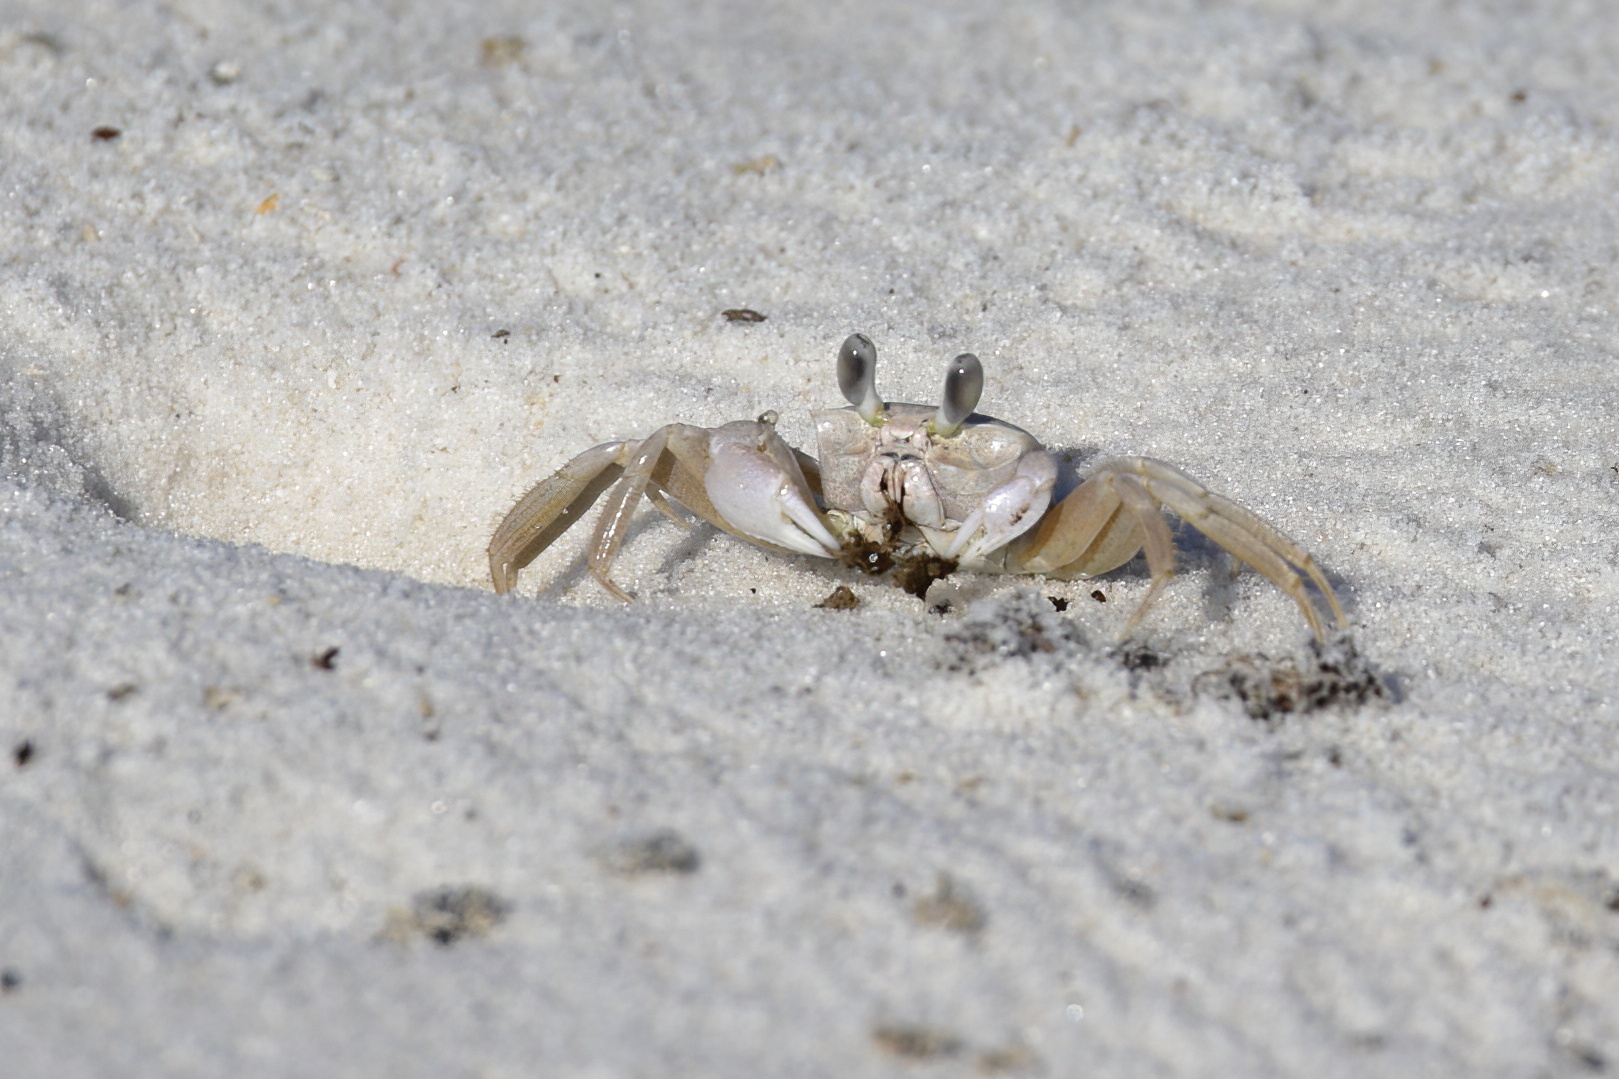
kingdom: Animalia
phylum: Arthropoda
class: Malacostraca
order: Decapoda
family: Ocypodidae
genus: Ocypode
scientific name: Ocypode quadrata
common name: Ghost crab
